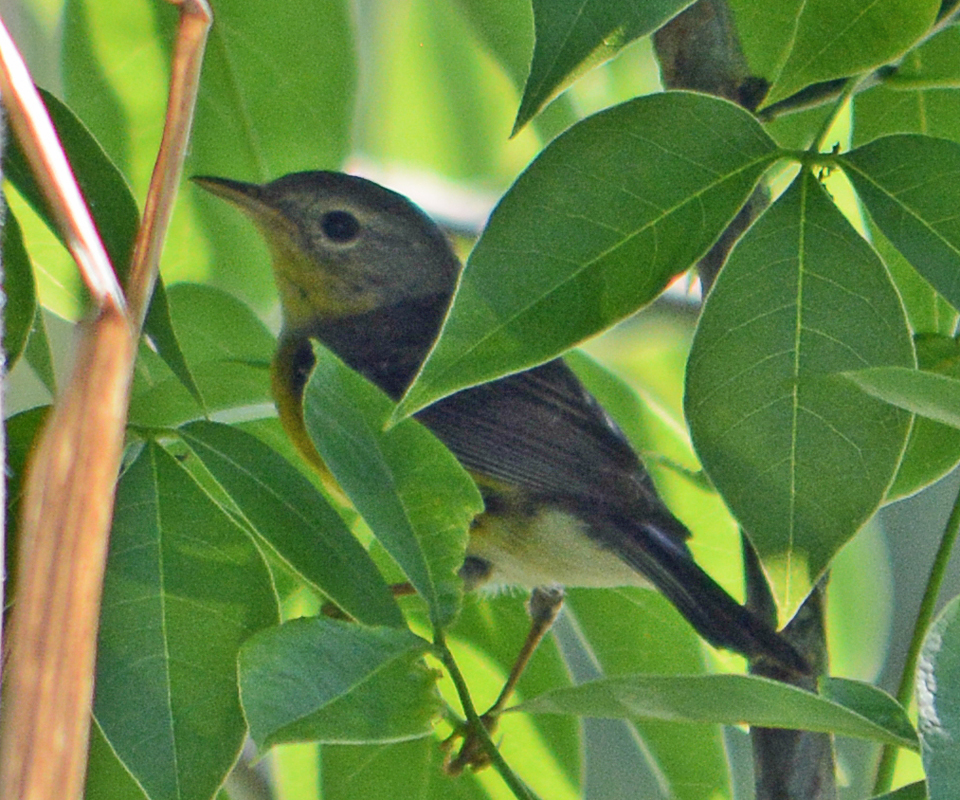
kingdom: Animalia
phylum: Chordata
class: Aves
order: Passeriformes
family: Parulidae
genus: Setophaga
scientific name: Setophaga magnolia
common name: Magnolia warbler
